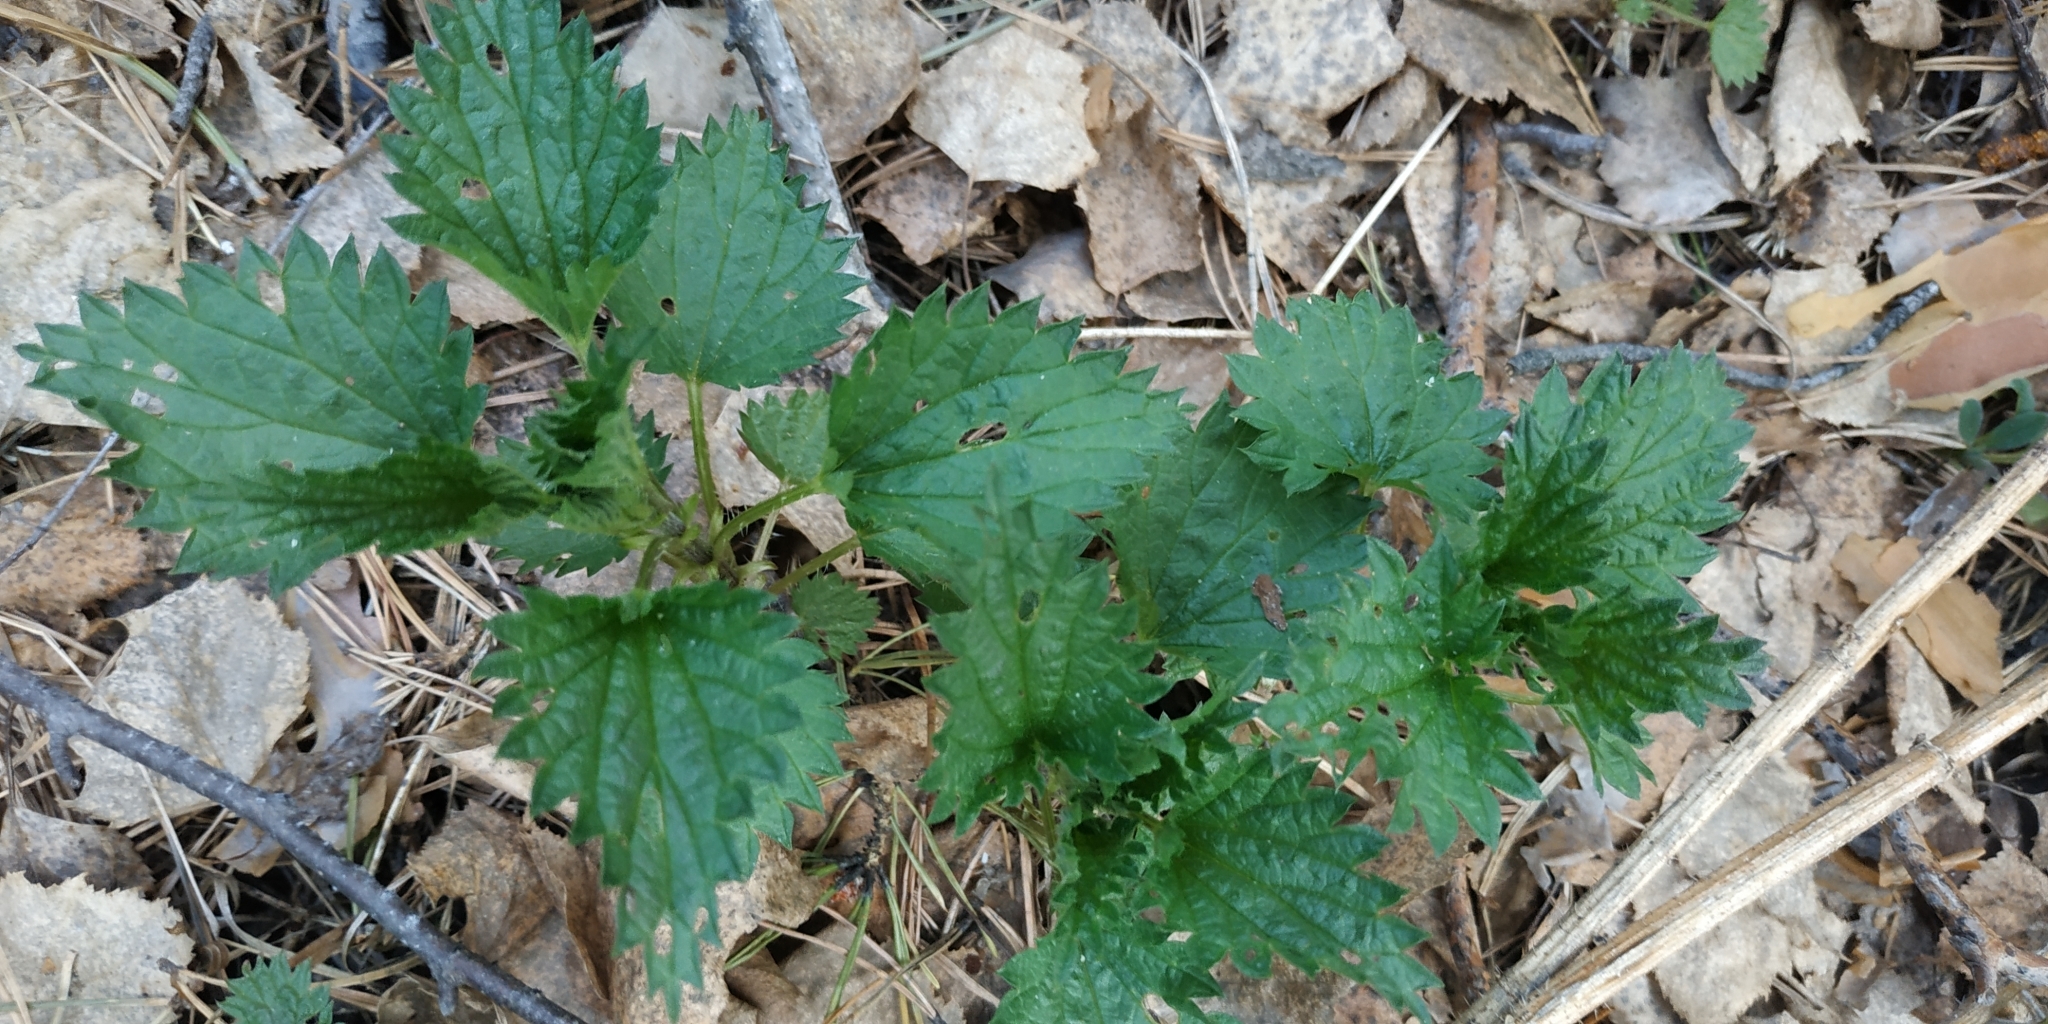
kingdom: Plantae
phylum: Tracheophyta
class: Magnoliopsida
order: Rosales
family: Urticaceae
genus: Urtica
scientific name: Urtica dioica
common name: Common nettle
